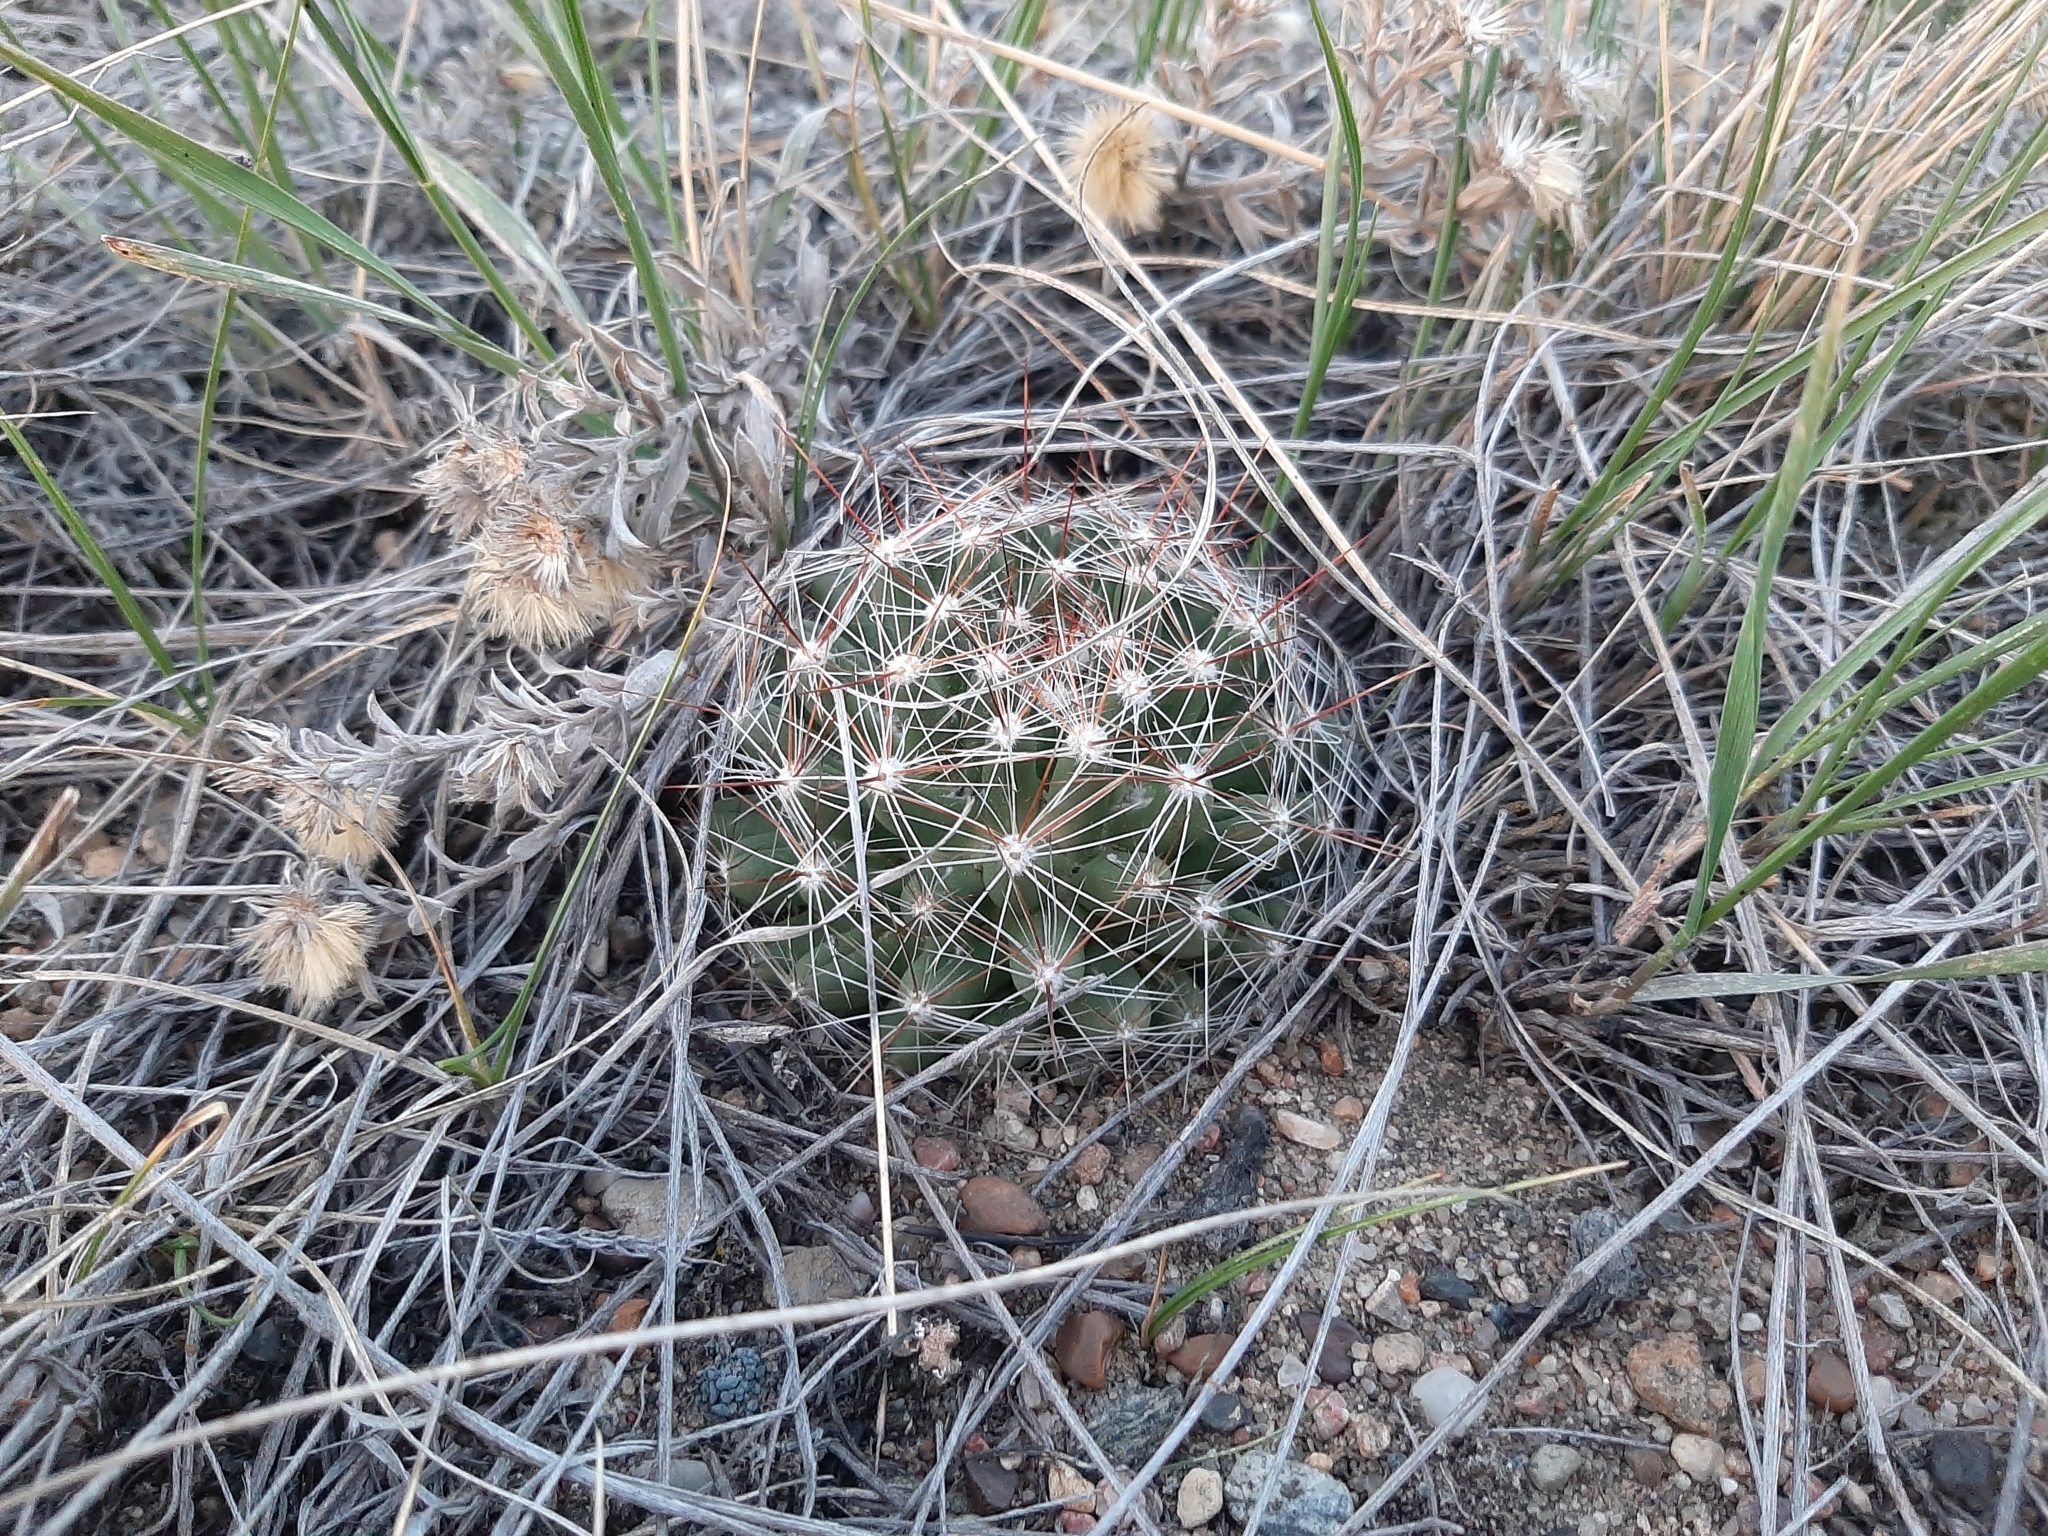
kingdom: Plantae
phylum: Tracheophyta
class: Magnoliopsida
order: Caryophyllales
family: Cactaceae
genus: Pelecyphora
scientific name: Pelecyphora vivipara
